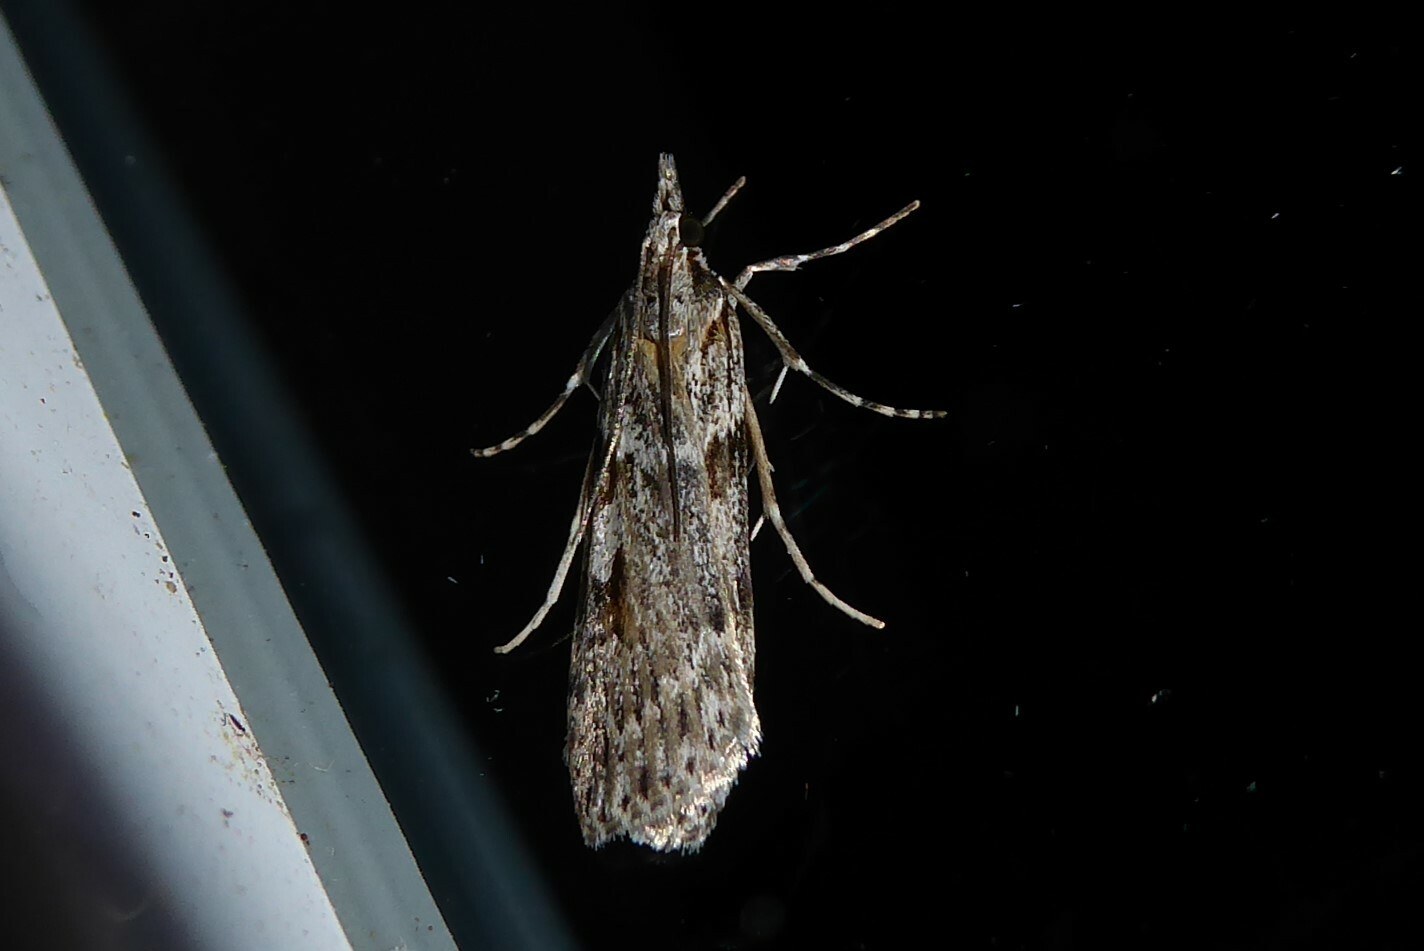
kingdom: Animalia
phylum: Arthropoda
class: Insecta
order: Lepidoptera
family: Crambidae
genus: Scoparia
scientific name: Scoparia halopis
